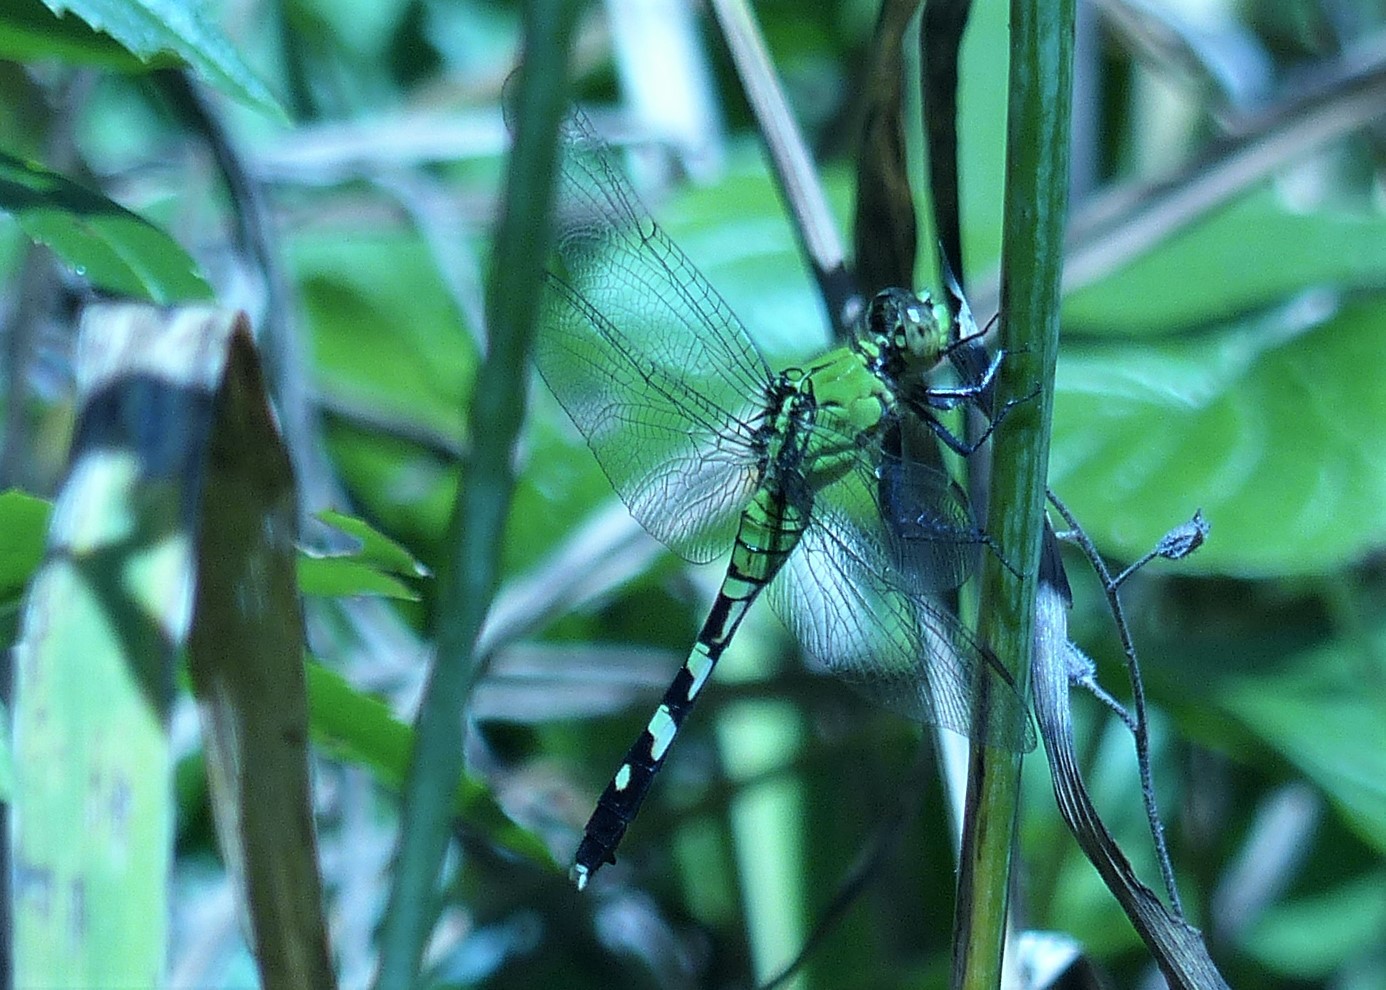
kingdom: Animalia
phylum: Arthropoda
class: Insecta
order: Odonata
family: Libellulidae
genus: Erythemis
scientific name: Erythemis simplicicollis
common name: Eastern pondhawk
